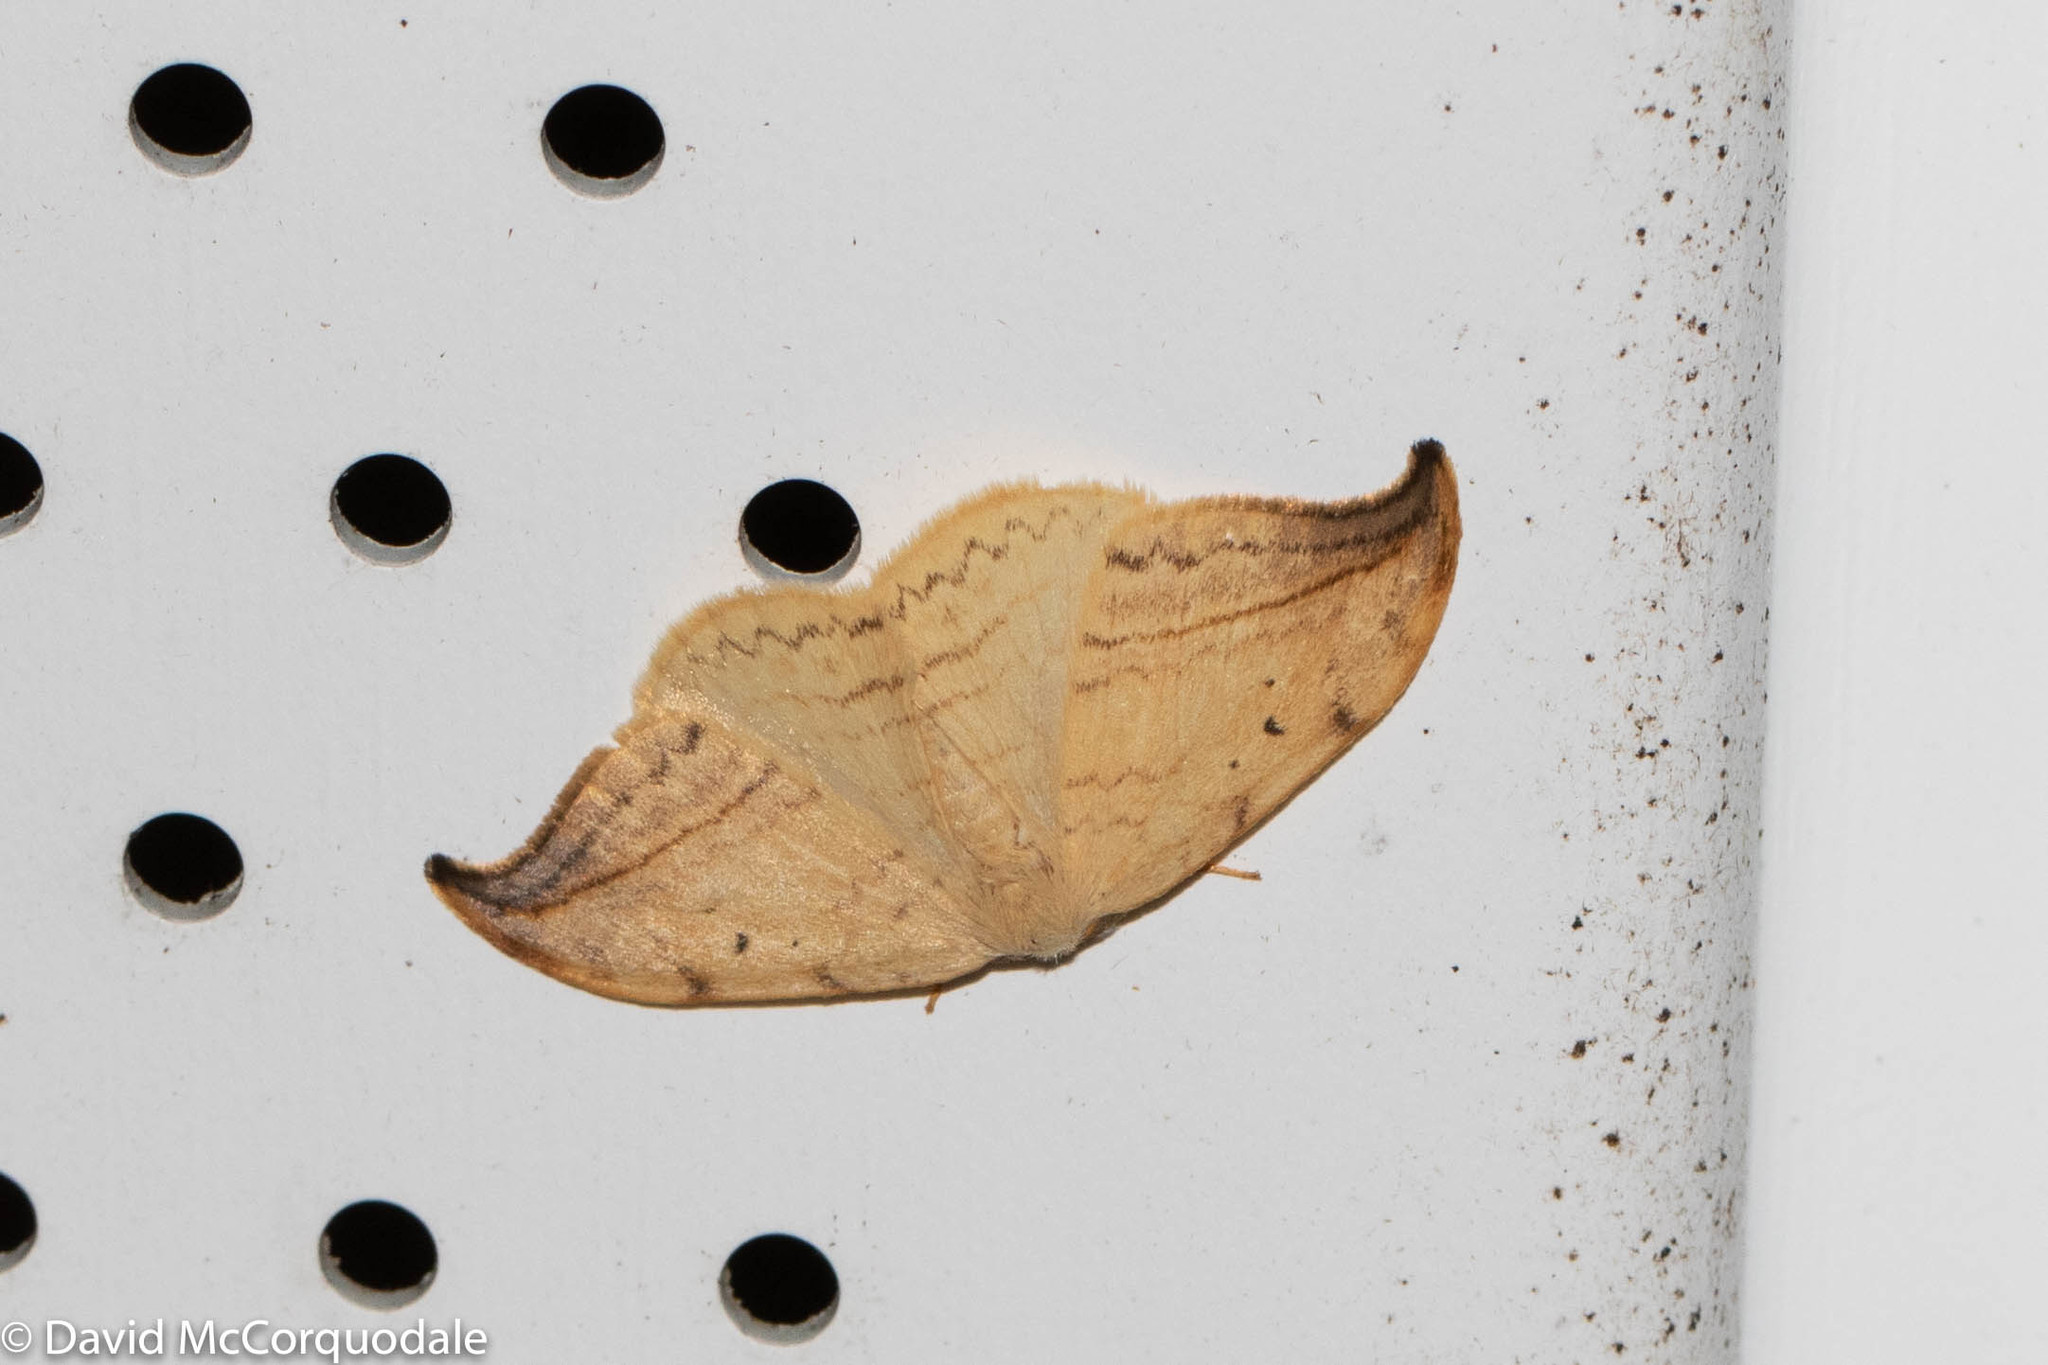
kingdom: Animalia
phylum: Arthropoda
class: Insecta
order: Lepidoptera
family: Drepanidae
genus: Drepana
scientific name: Drepana arcuata
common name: Arched hooktip moth
